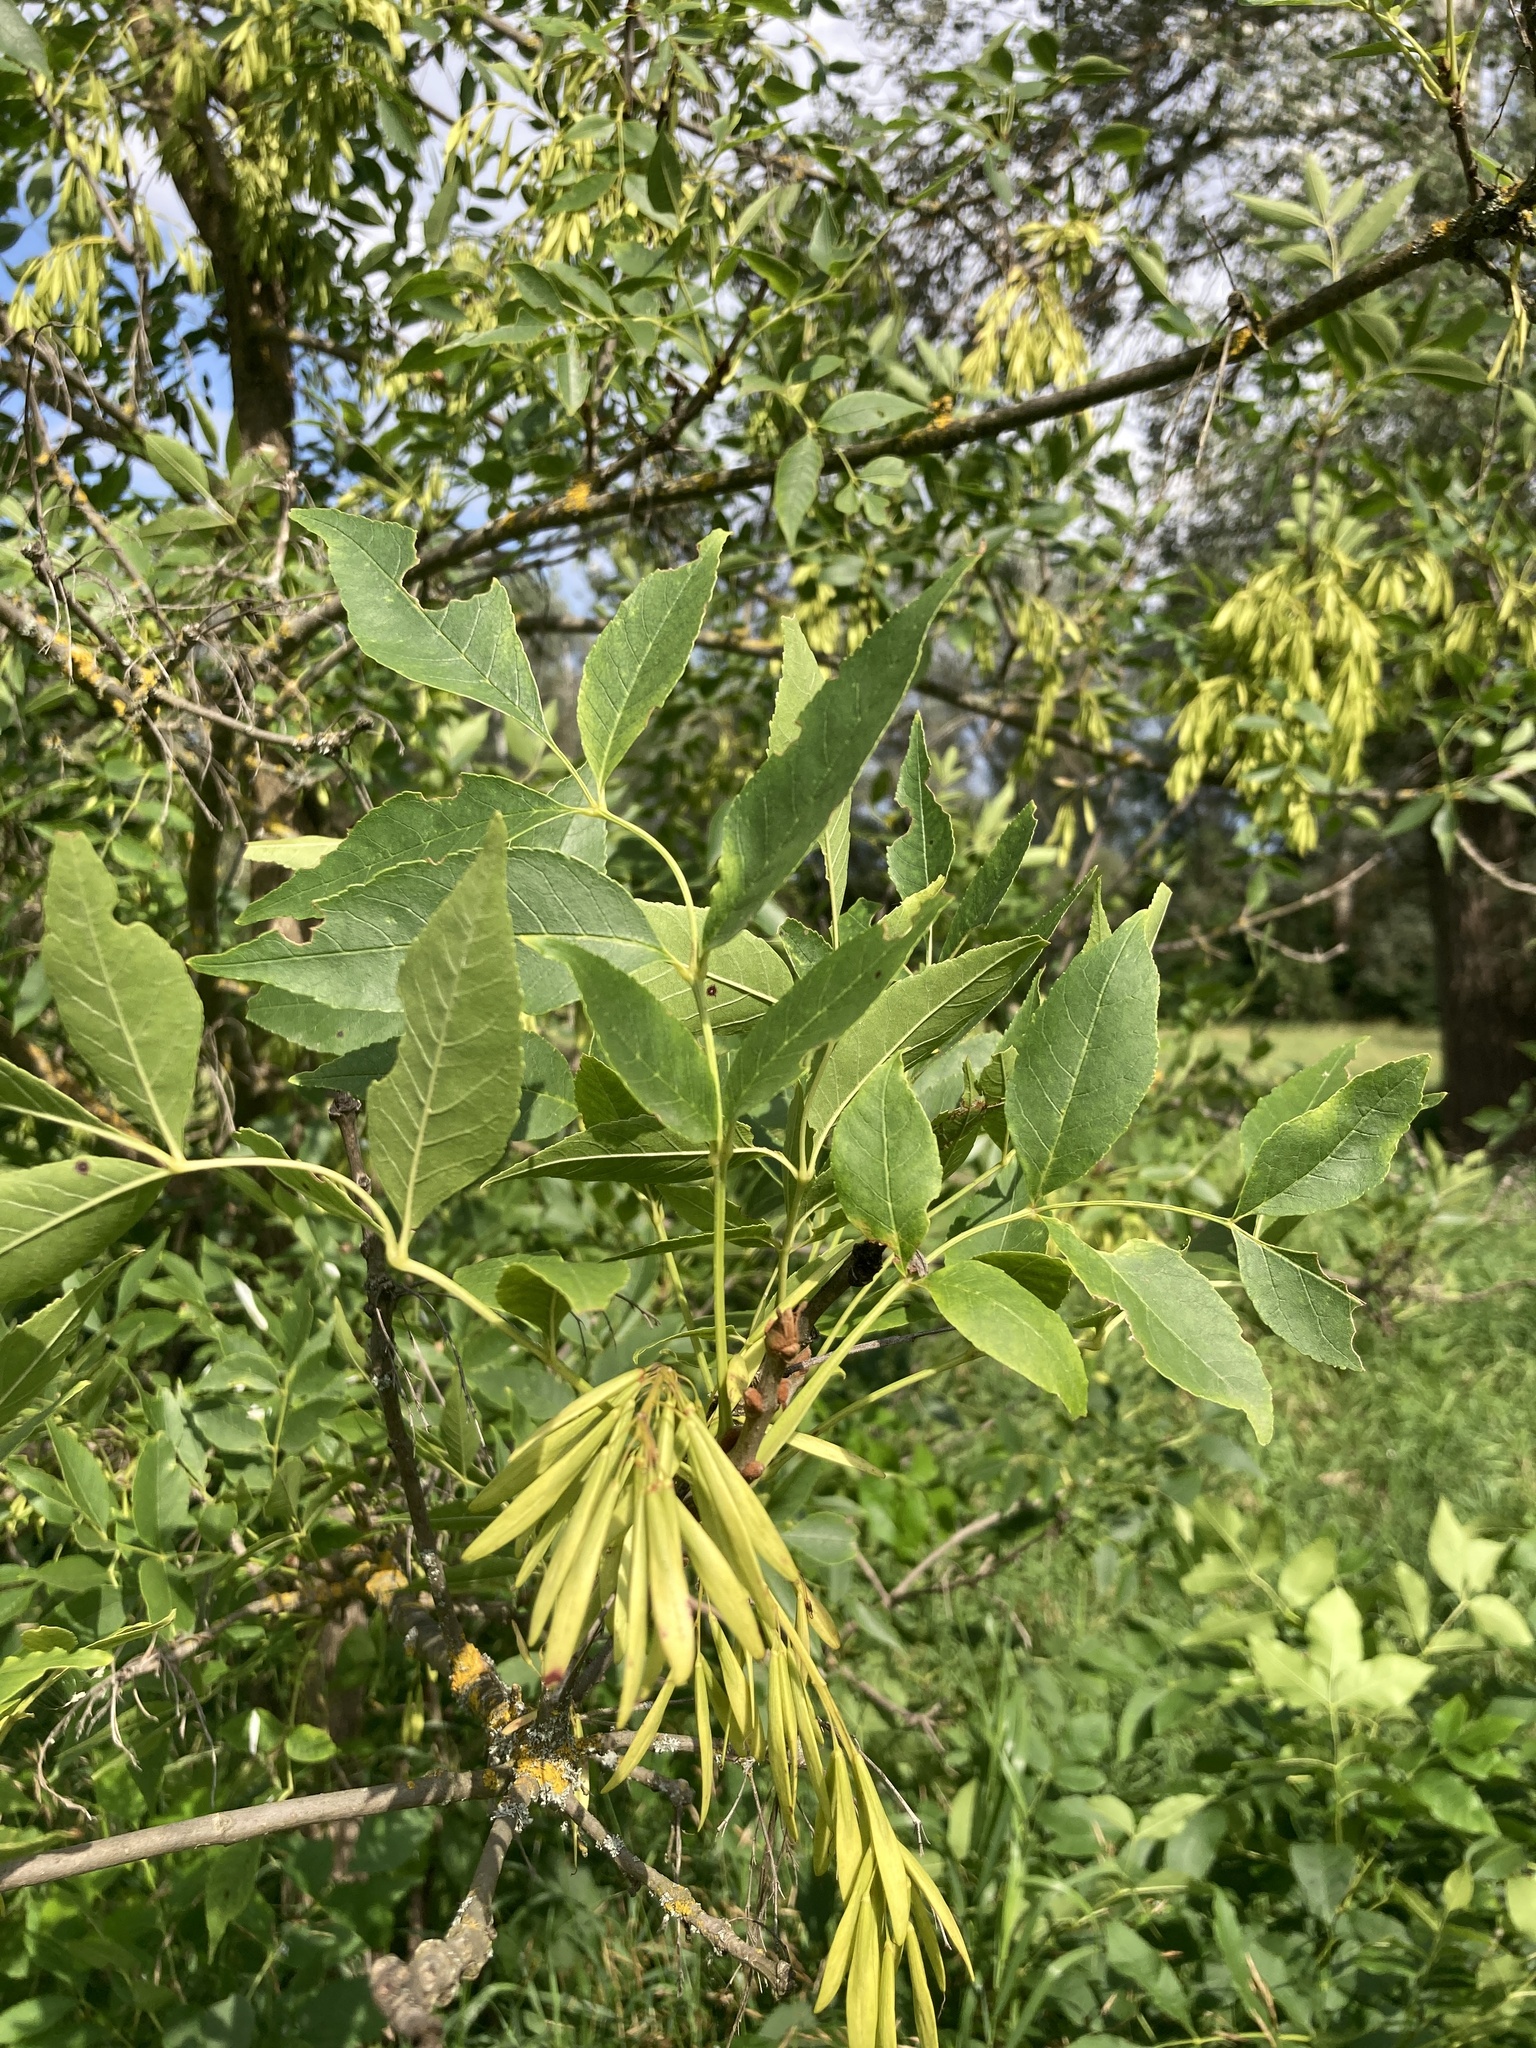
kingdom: Plantae
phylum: Tracheophyta
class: Magnoliopsida
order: Lamiales
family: Oleaceae
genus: Fraxinus
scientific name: Fraxinus pennsylvanica
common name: Green ash
